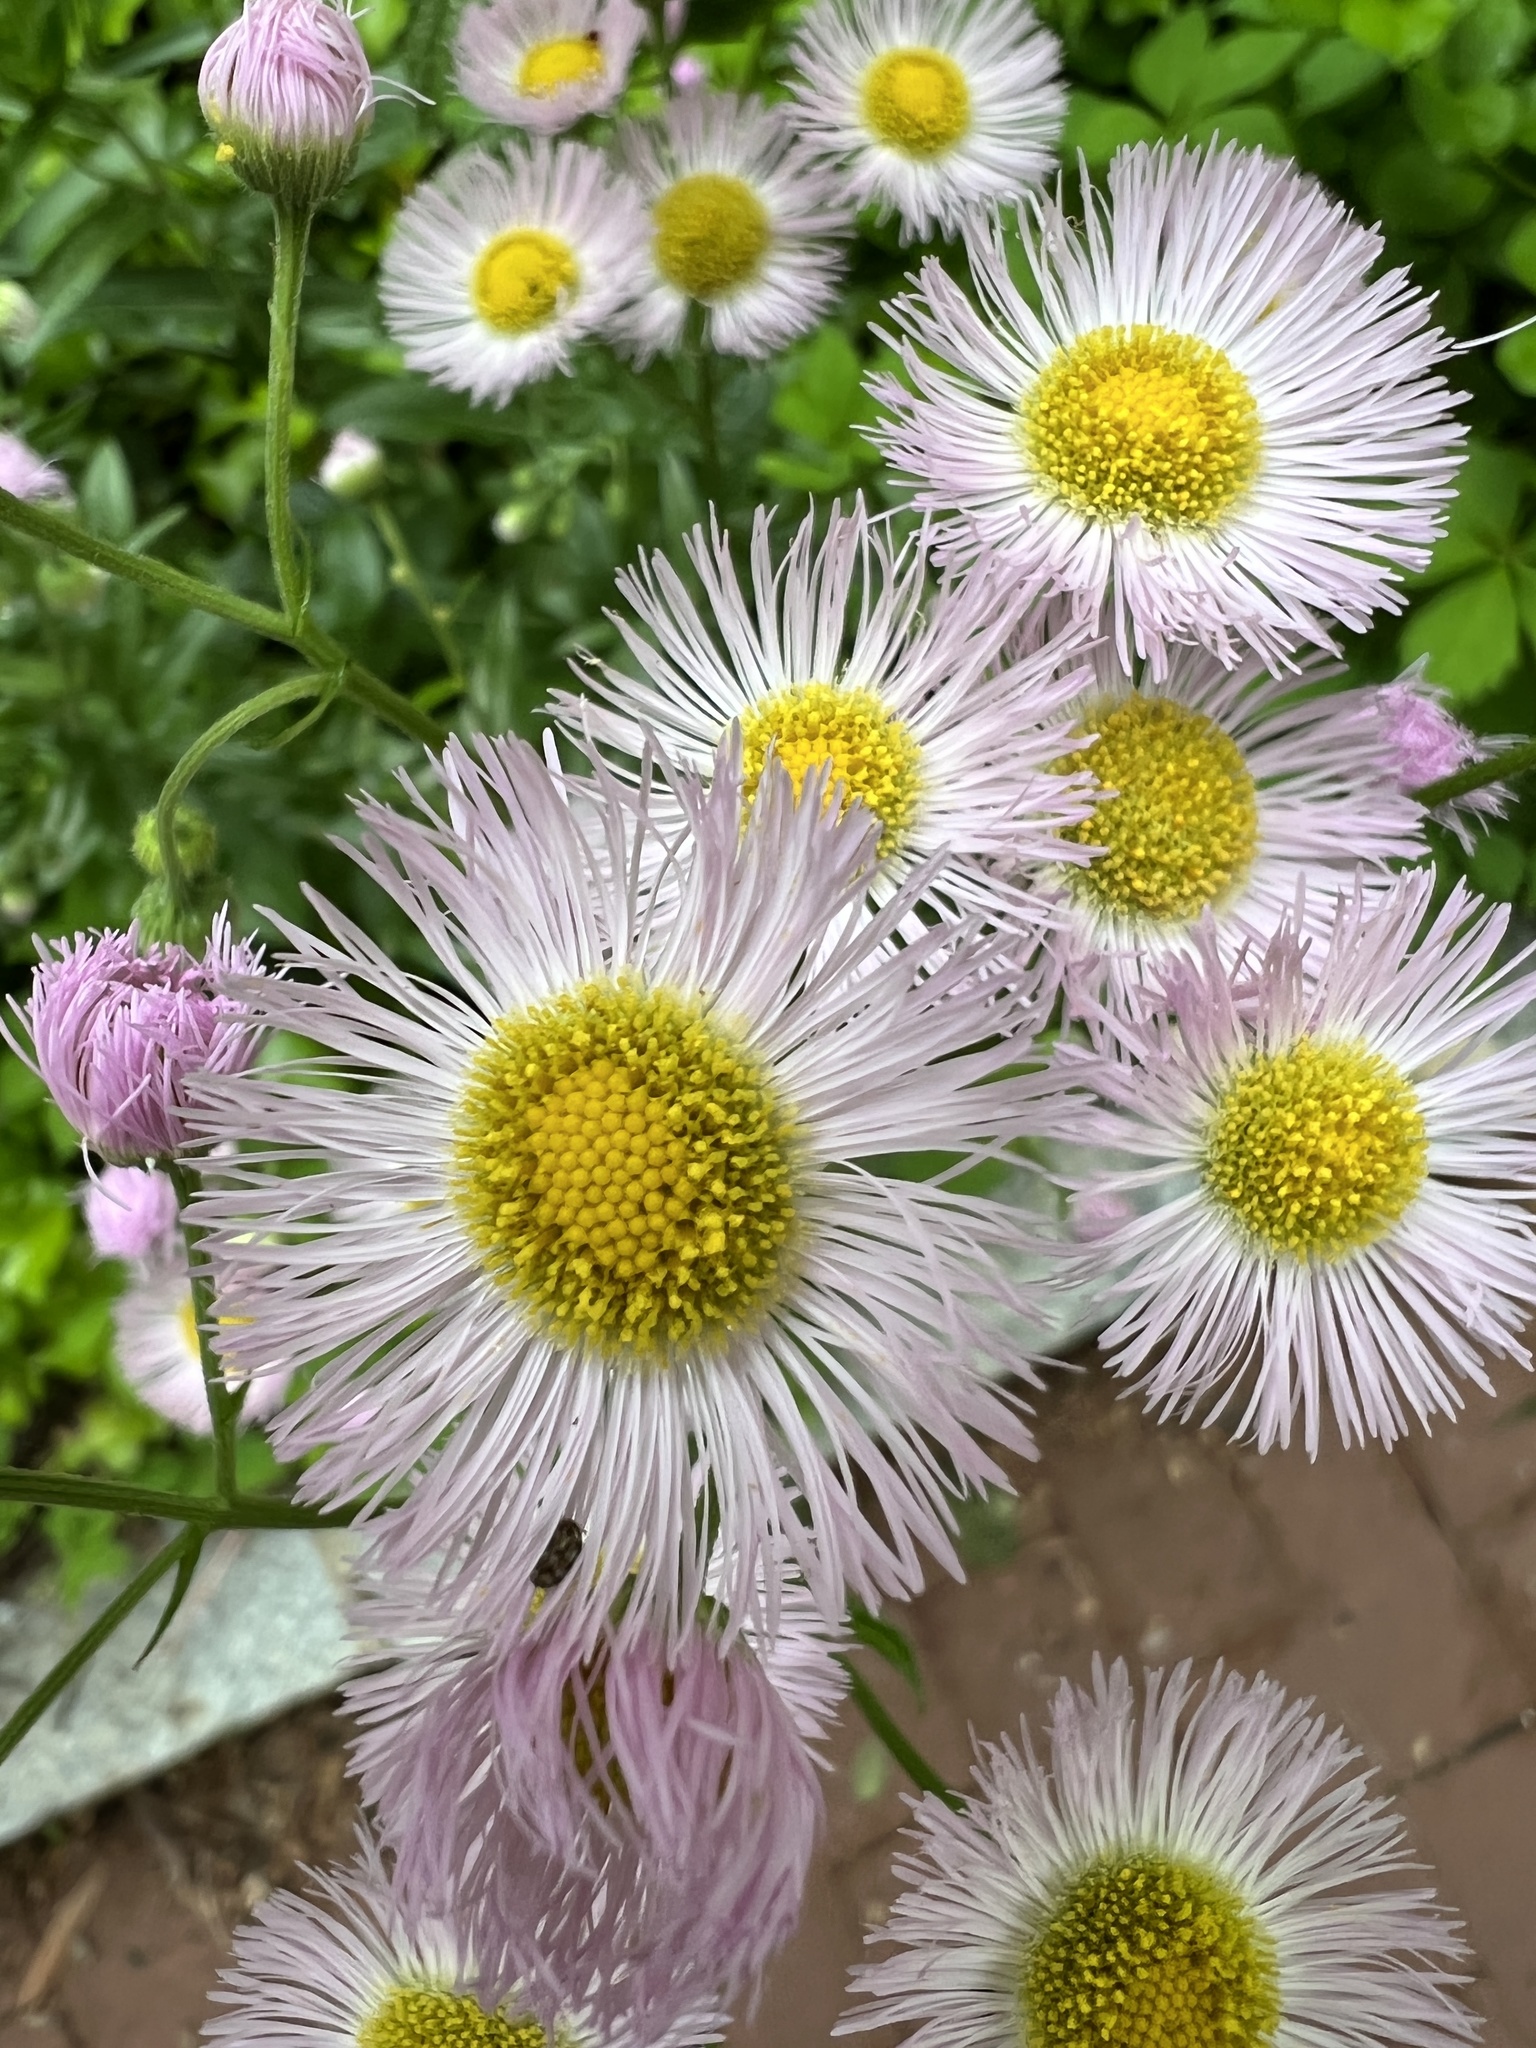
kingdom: Plantae
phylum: Tracheophyta
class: Magnoliopsida
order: Asterales
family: Asteraceae
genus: Erigeron
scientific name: Erigeron philadelphicus
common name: Robin's-plantain
